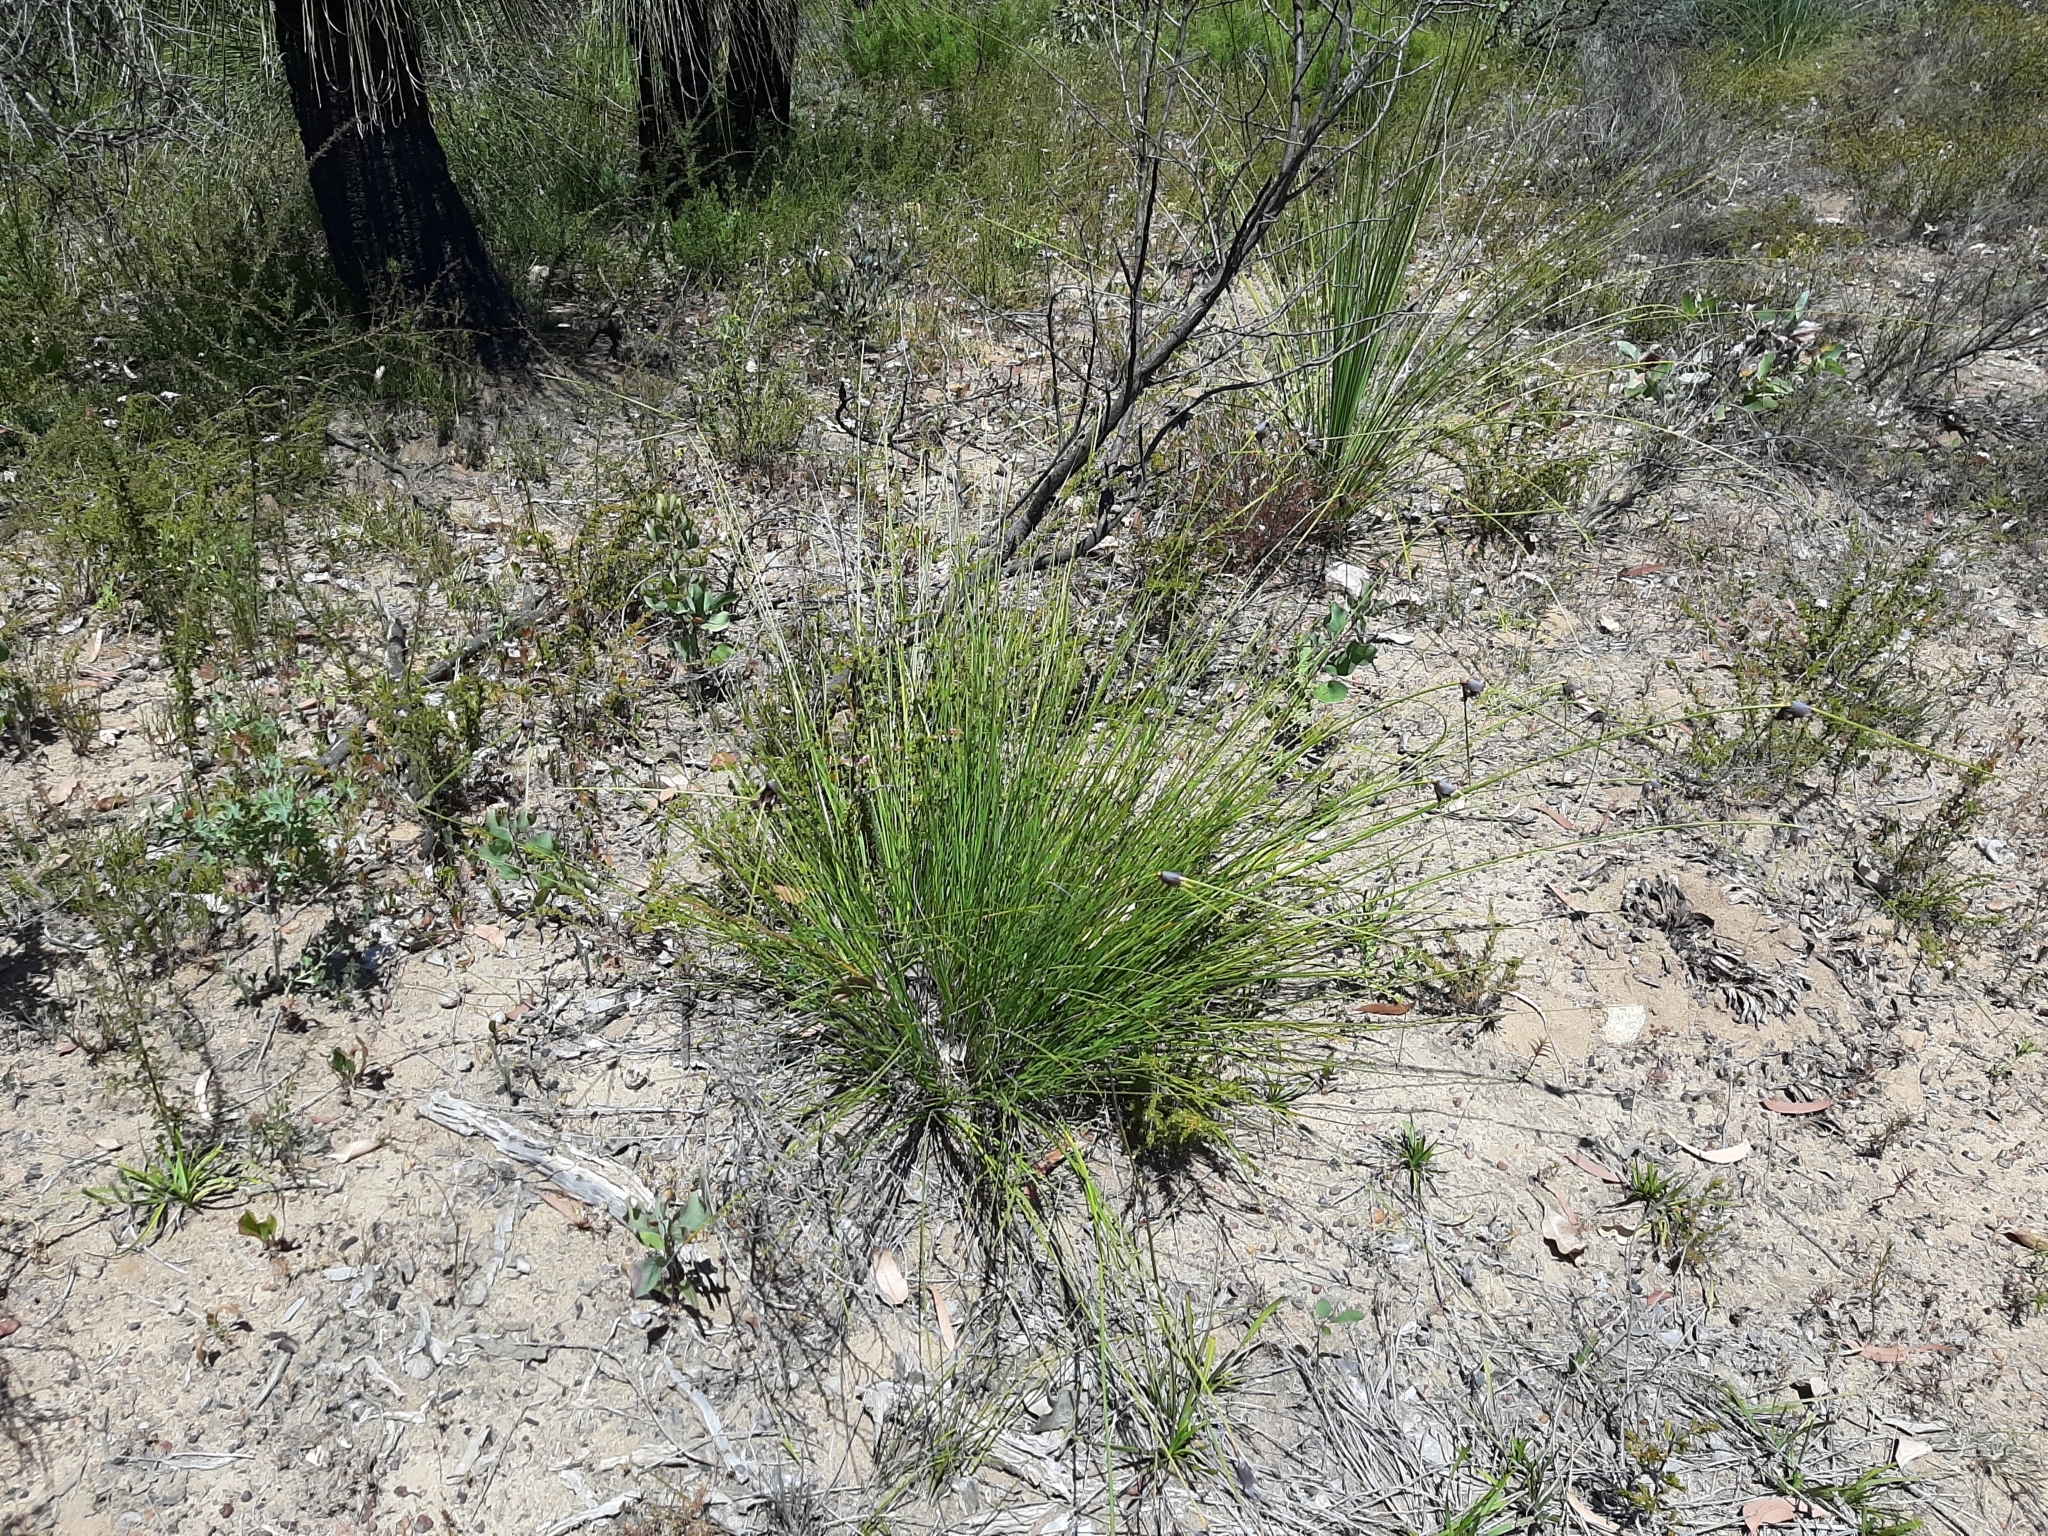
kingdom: Plantae
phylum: Tracheophyta
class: Liliopsida
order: Poales
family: Cyperaceae
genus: Mesomelaena
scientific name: Mesomelaena tetragona
